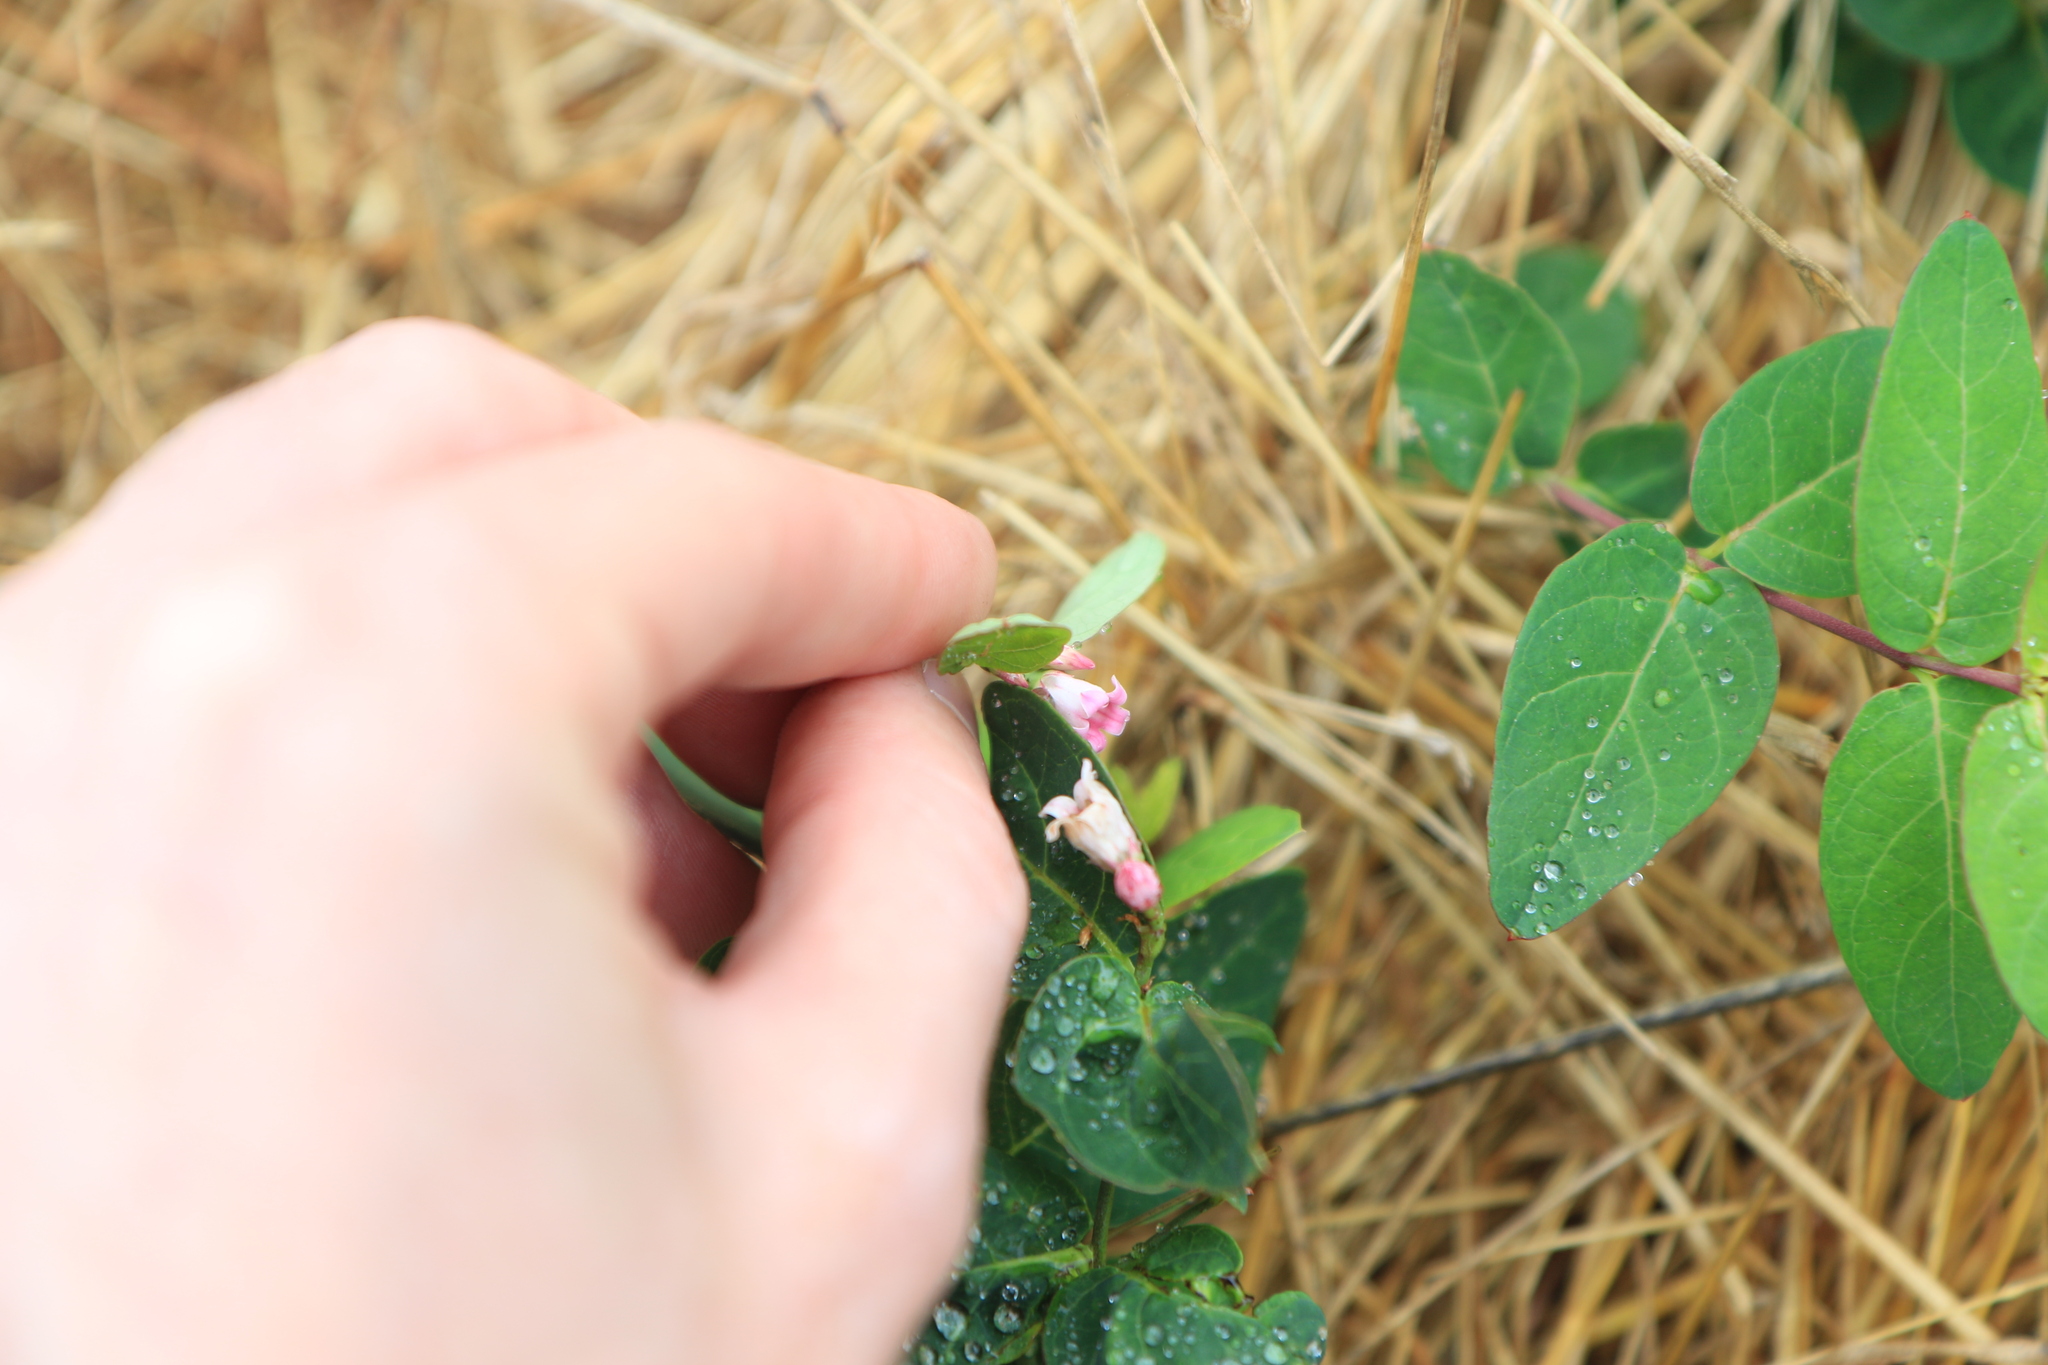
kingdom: Plantae
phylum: Tracheophyta
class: Magnoliopsida
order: Gentianales
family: Apocynaceae
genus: Apocynum
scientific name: Apocynum androsaemifolium
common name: Spreading dogbane
